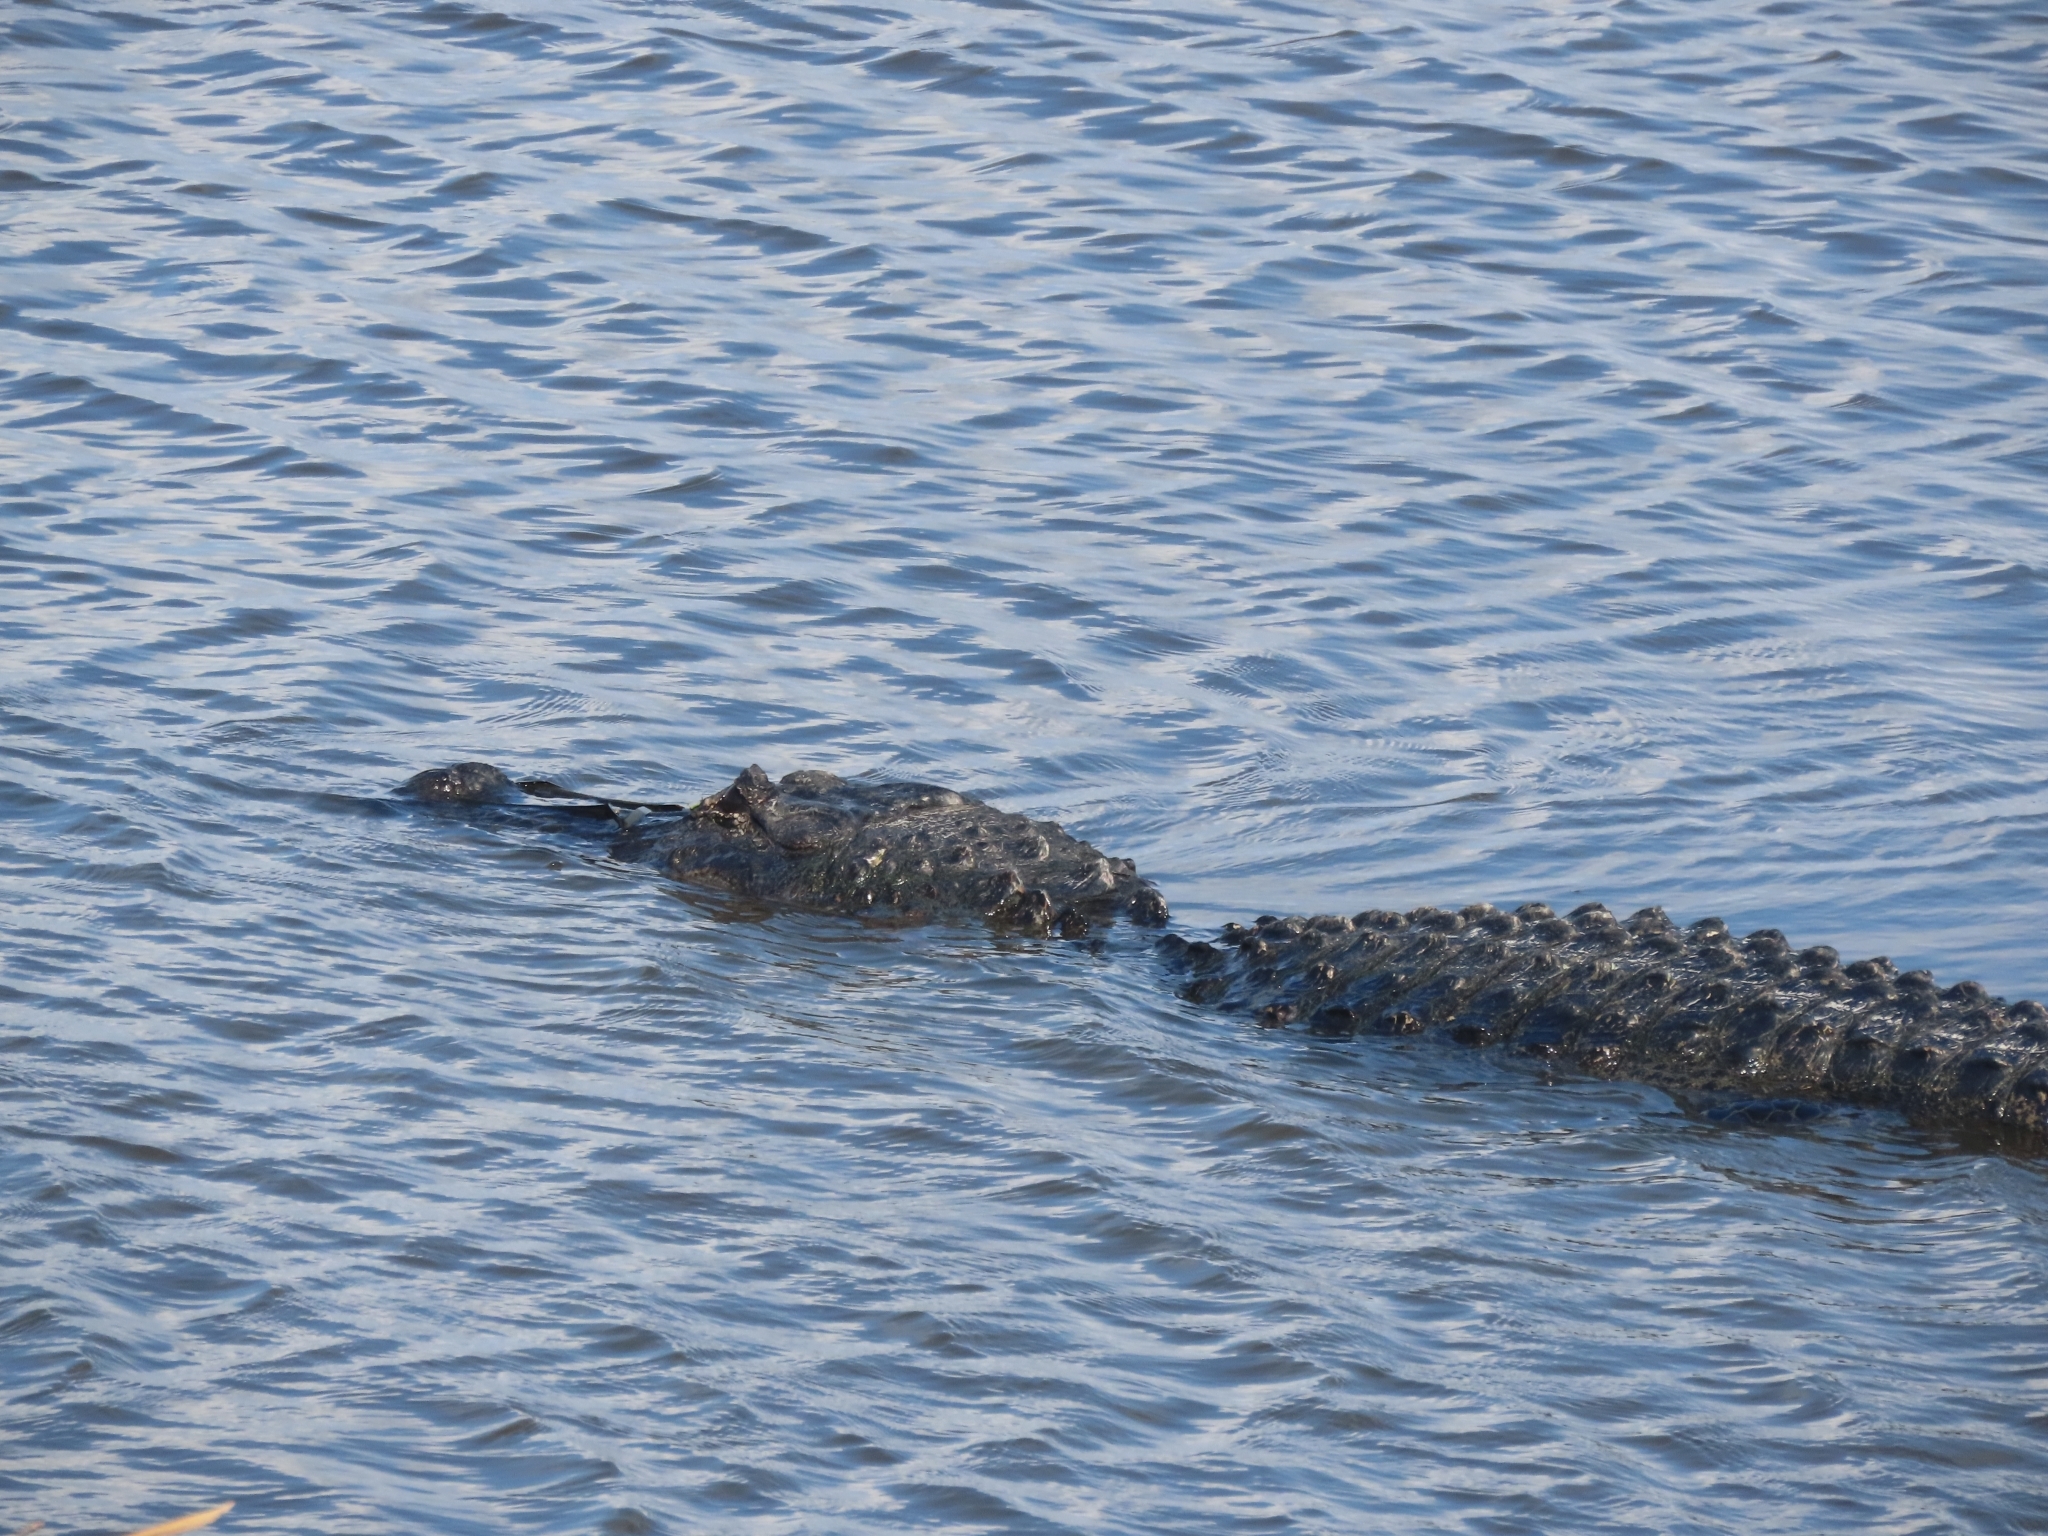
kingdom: Animalia
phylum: Chordata
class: Crocodylia
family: Alligatoridae
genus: Alligator
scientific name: Alligator mississippiensis
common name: American alligator
